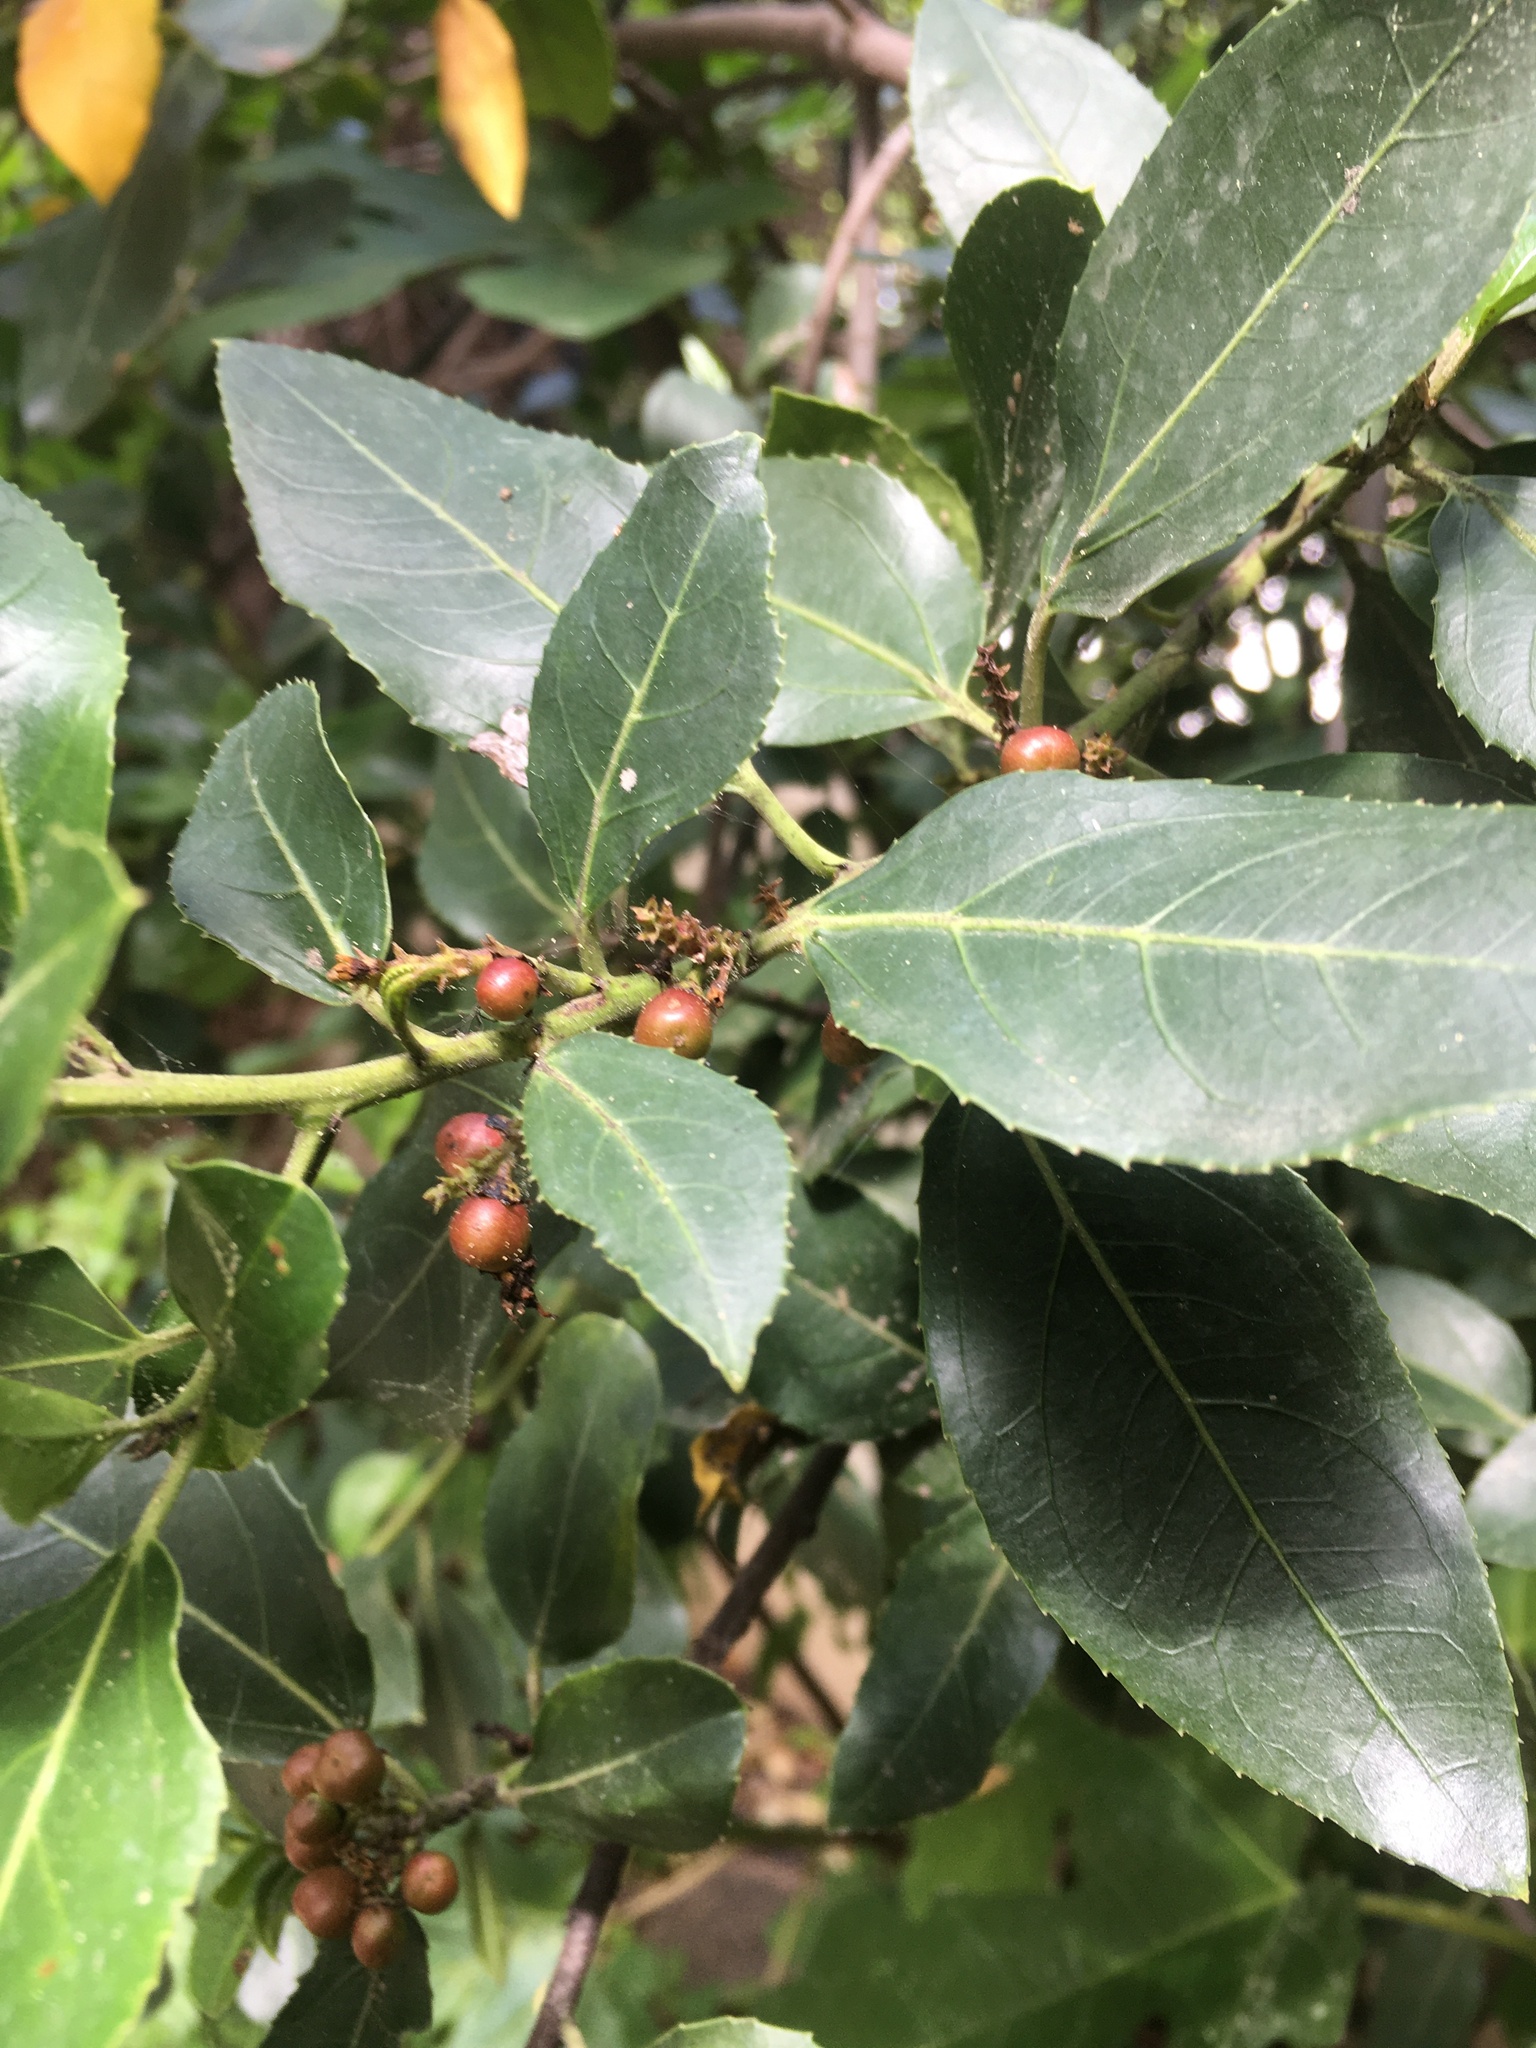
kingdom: Plantae
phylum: Tracheophyta
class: Magnoliopsida
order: Rosales
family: Rhamnaceae
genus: Rhamnus
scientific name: Rhamnus alaternus
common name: Mediterranean buckthorn
